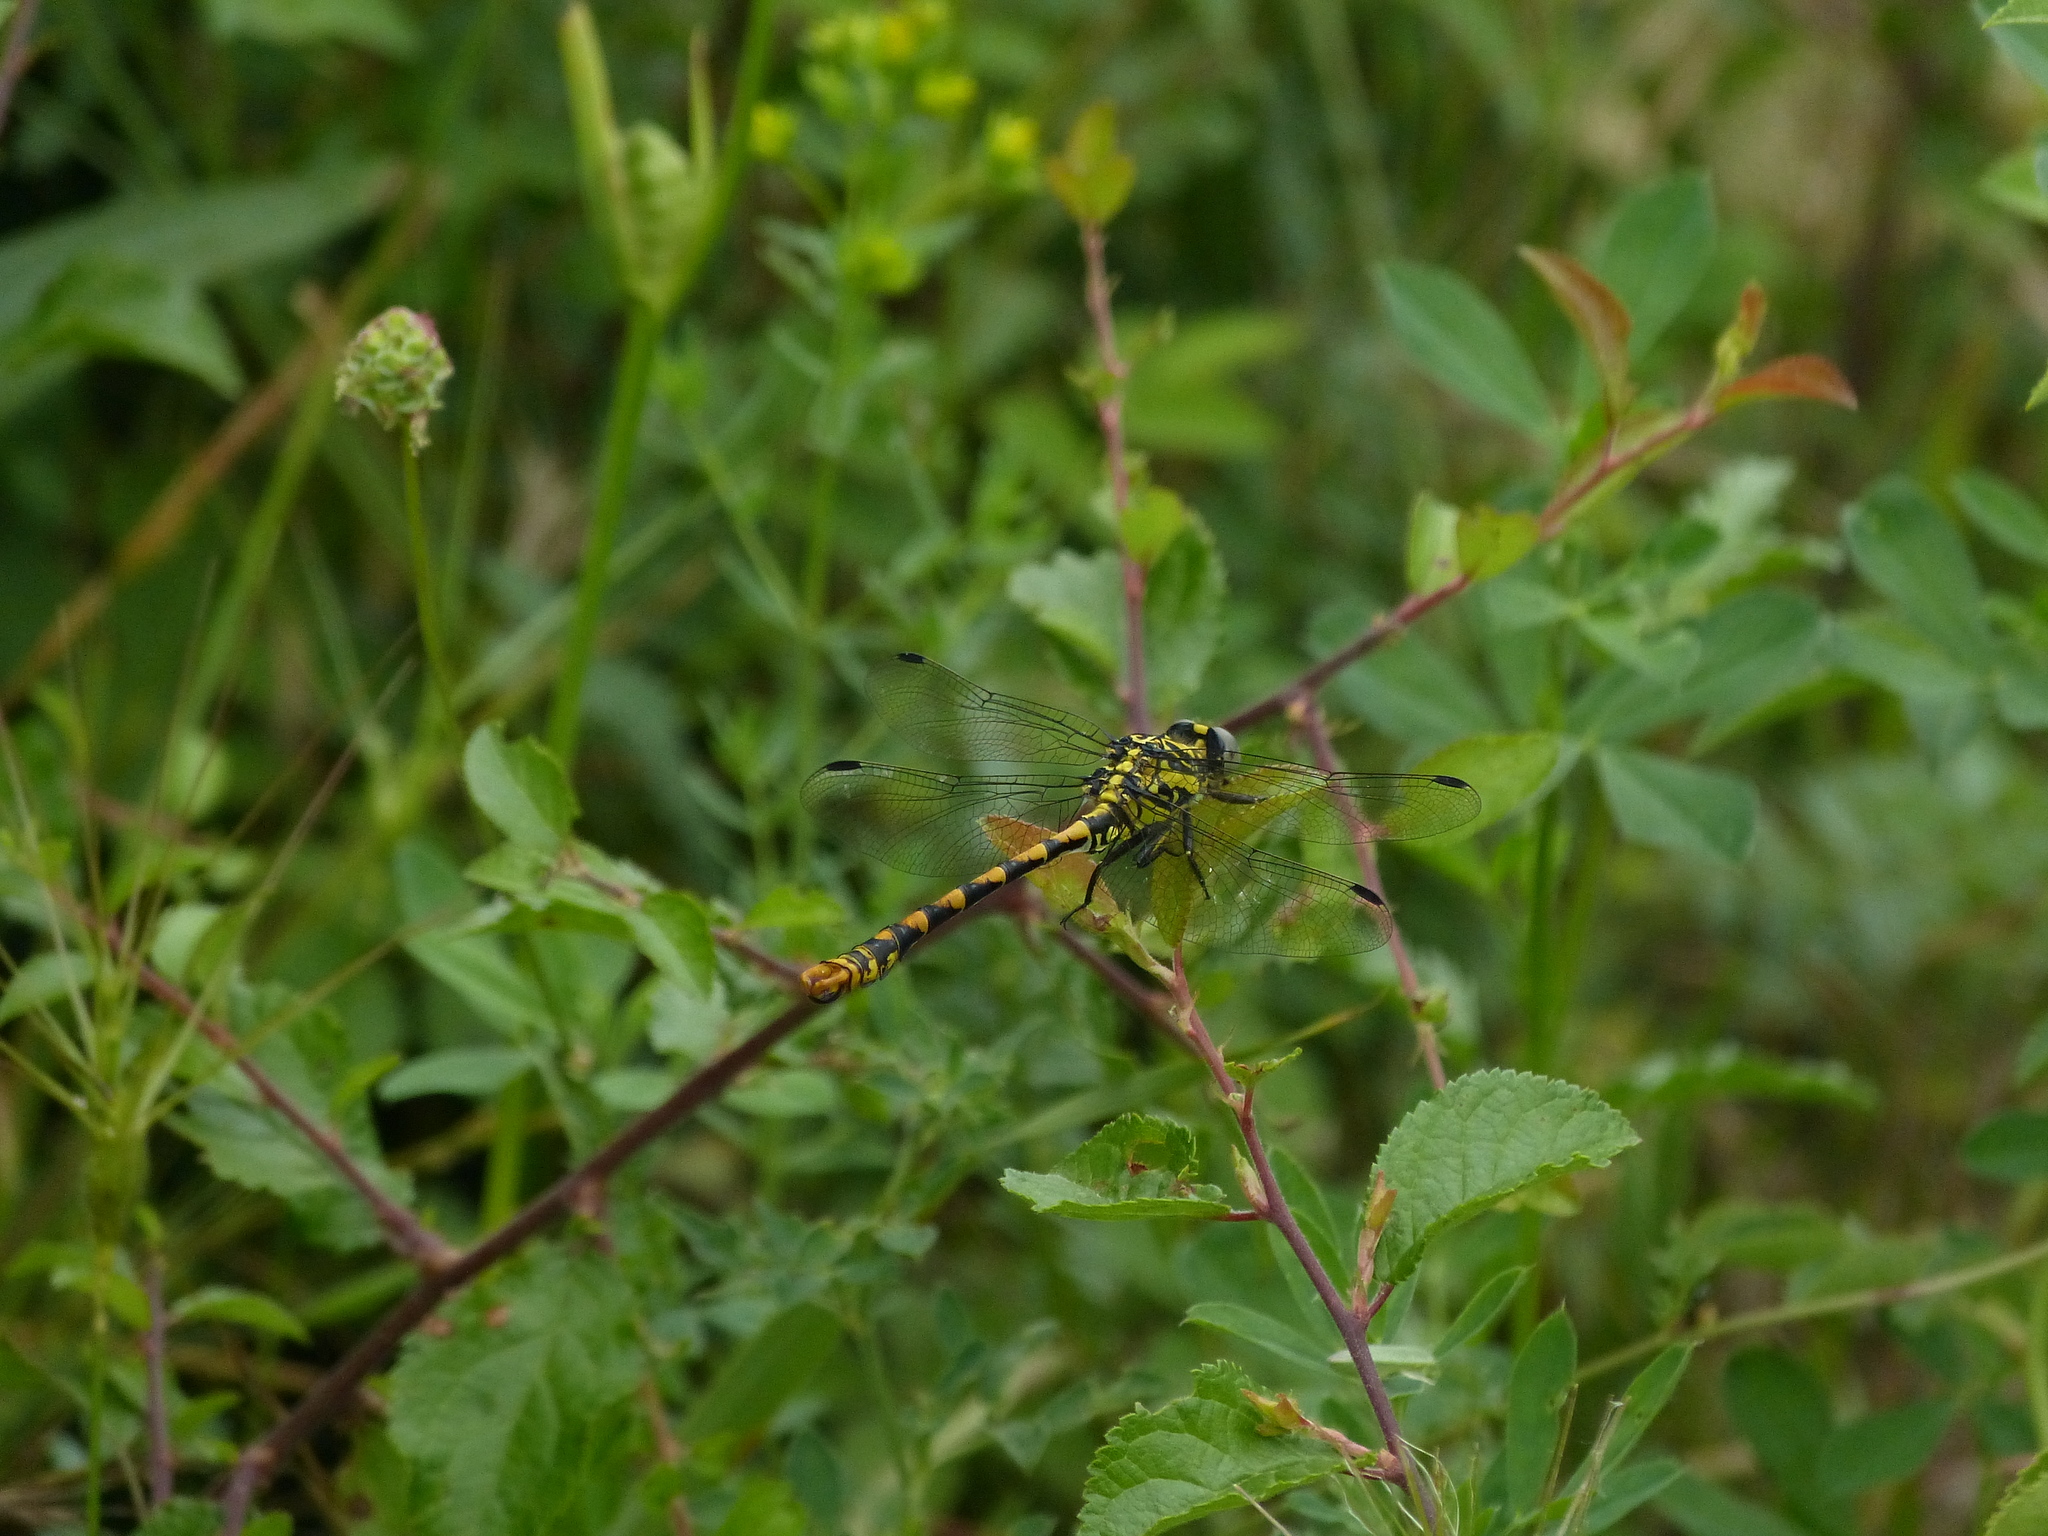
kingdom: Animalia
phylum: Arthropoda
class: Insecta
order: Odonata
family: Gomphidae
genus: Onychogomphus
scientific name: Onychogomphus uncatus
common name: Large pincertail
